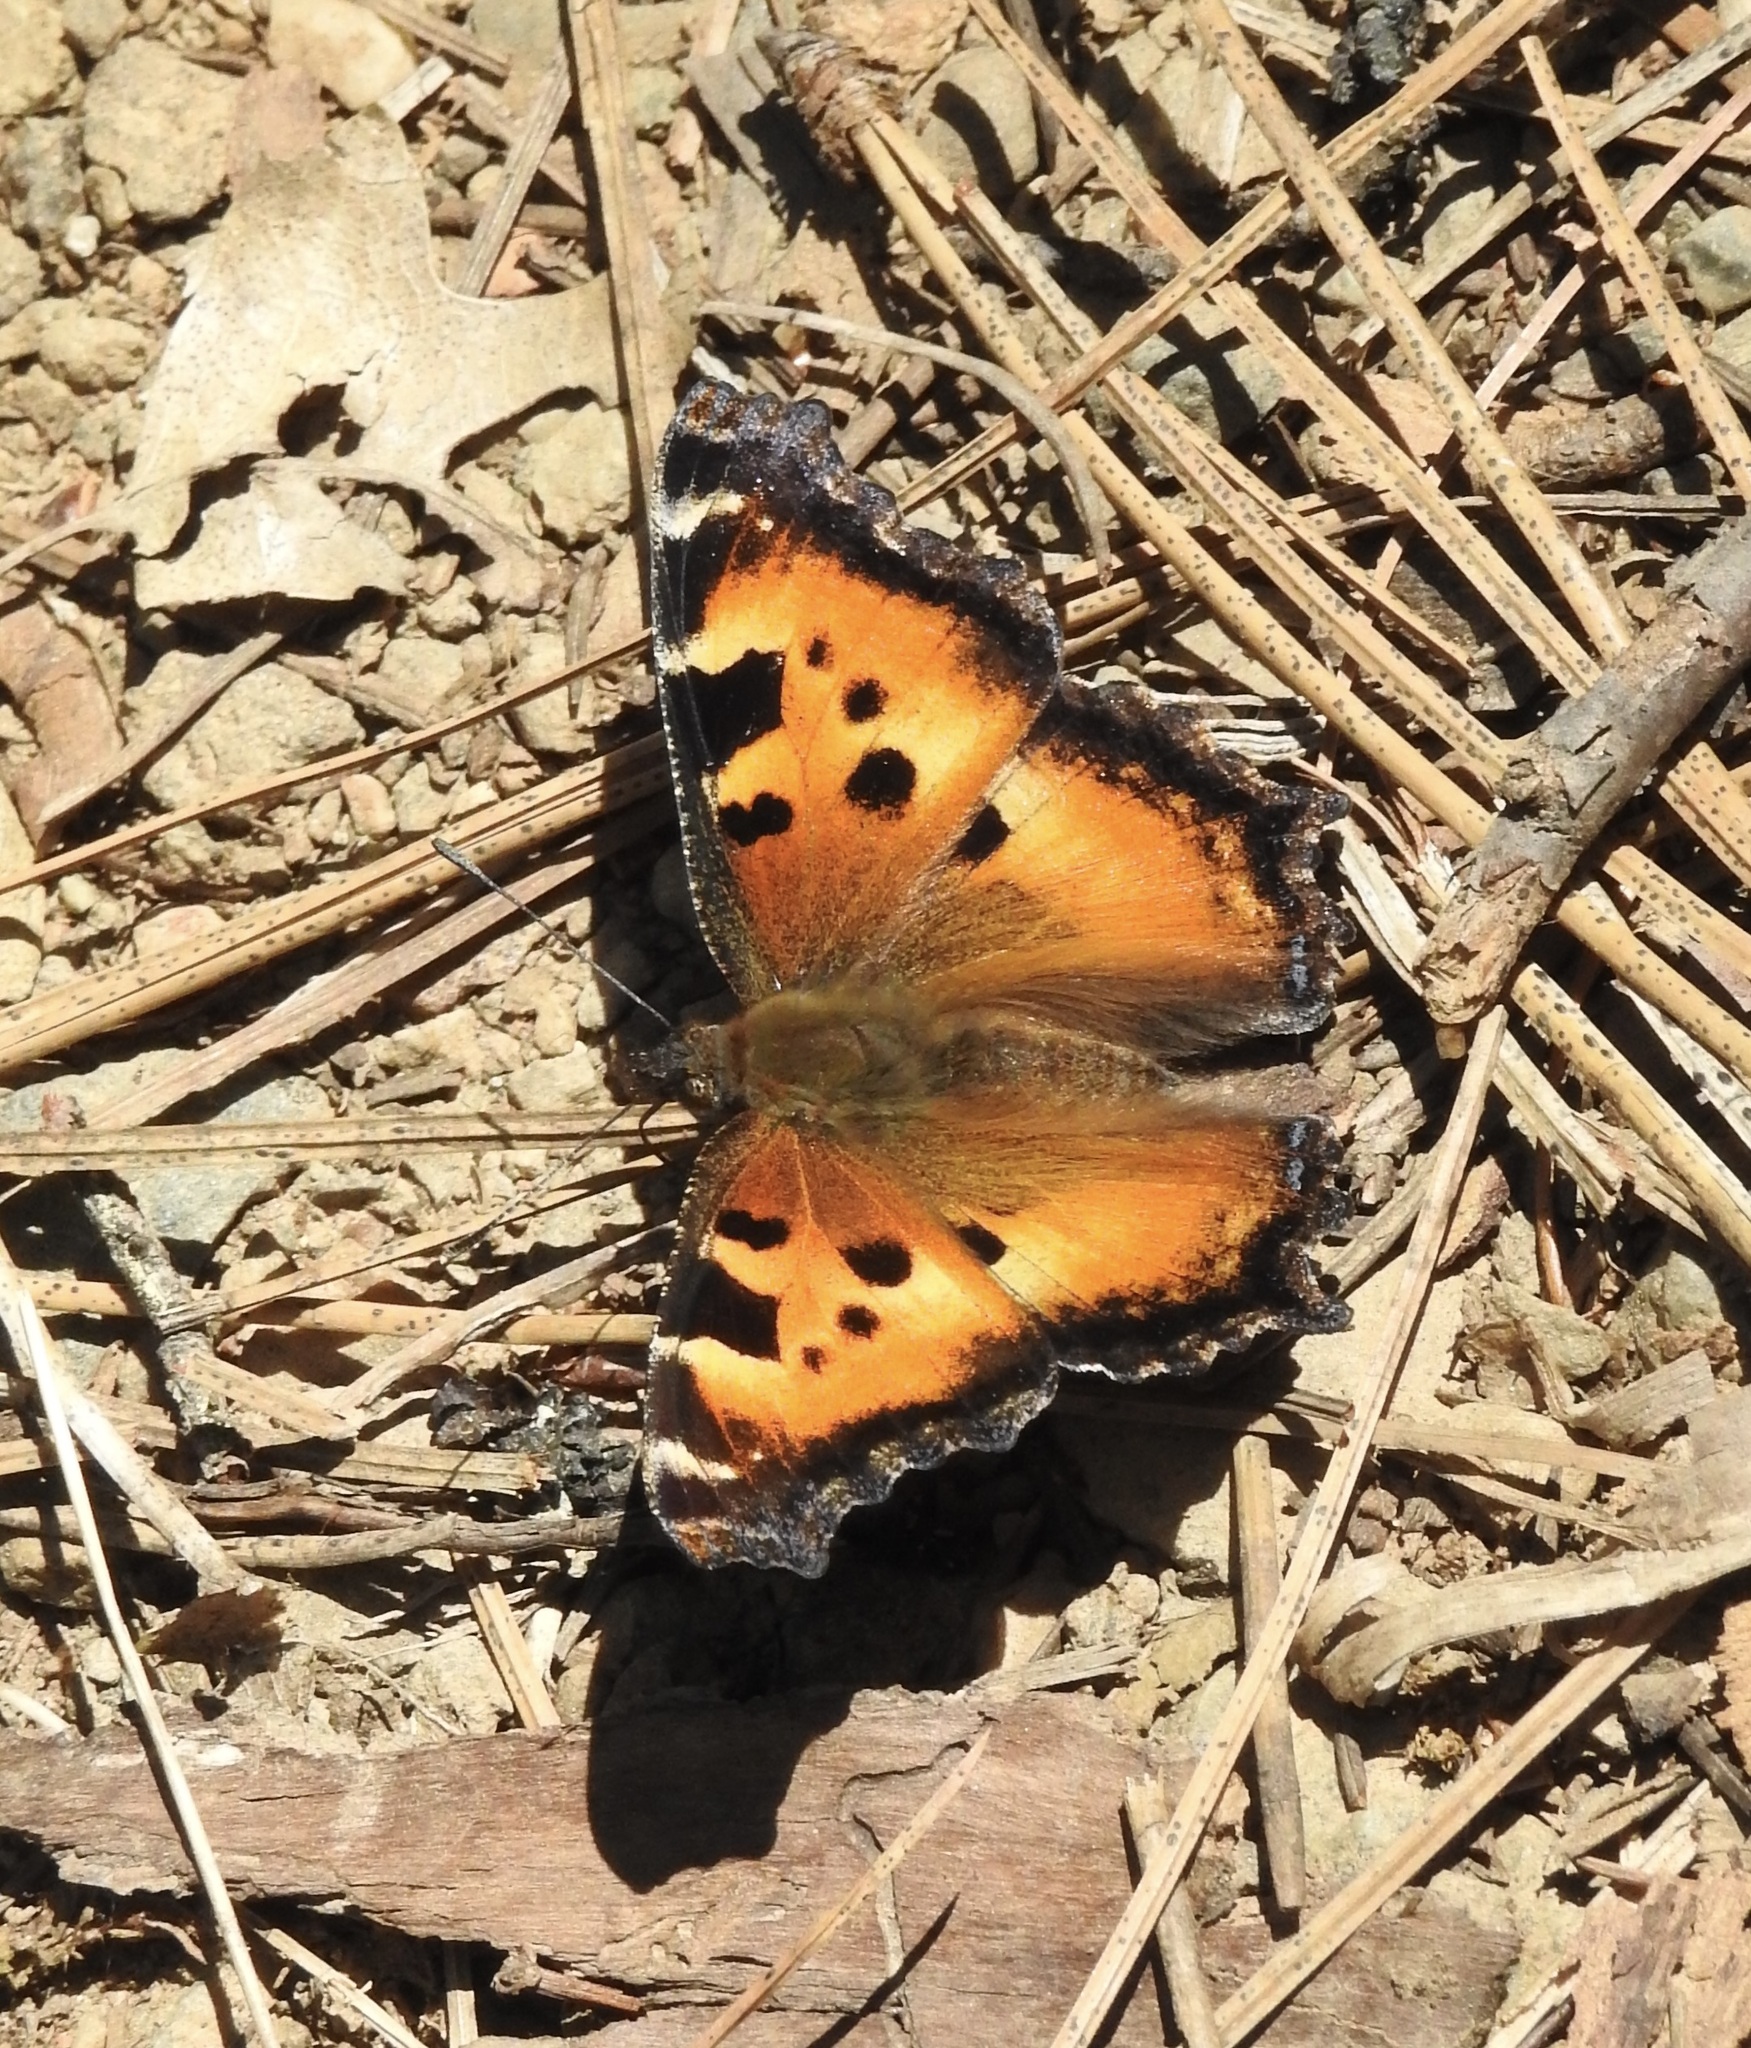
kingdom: Animalia
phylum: Arthropoda
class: Insecta
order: Lepidoptera
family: Nymphalidae
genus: Nymphalis
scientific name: Nymphalis californica
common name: California tortoiseshell
